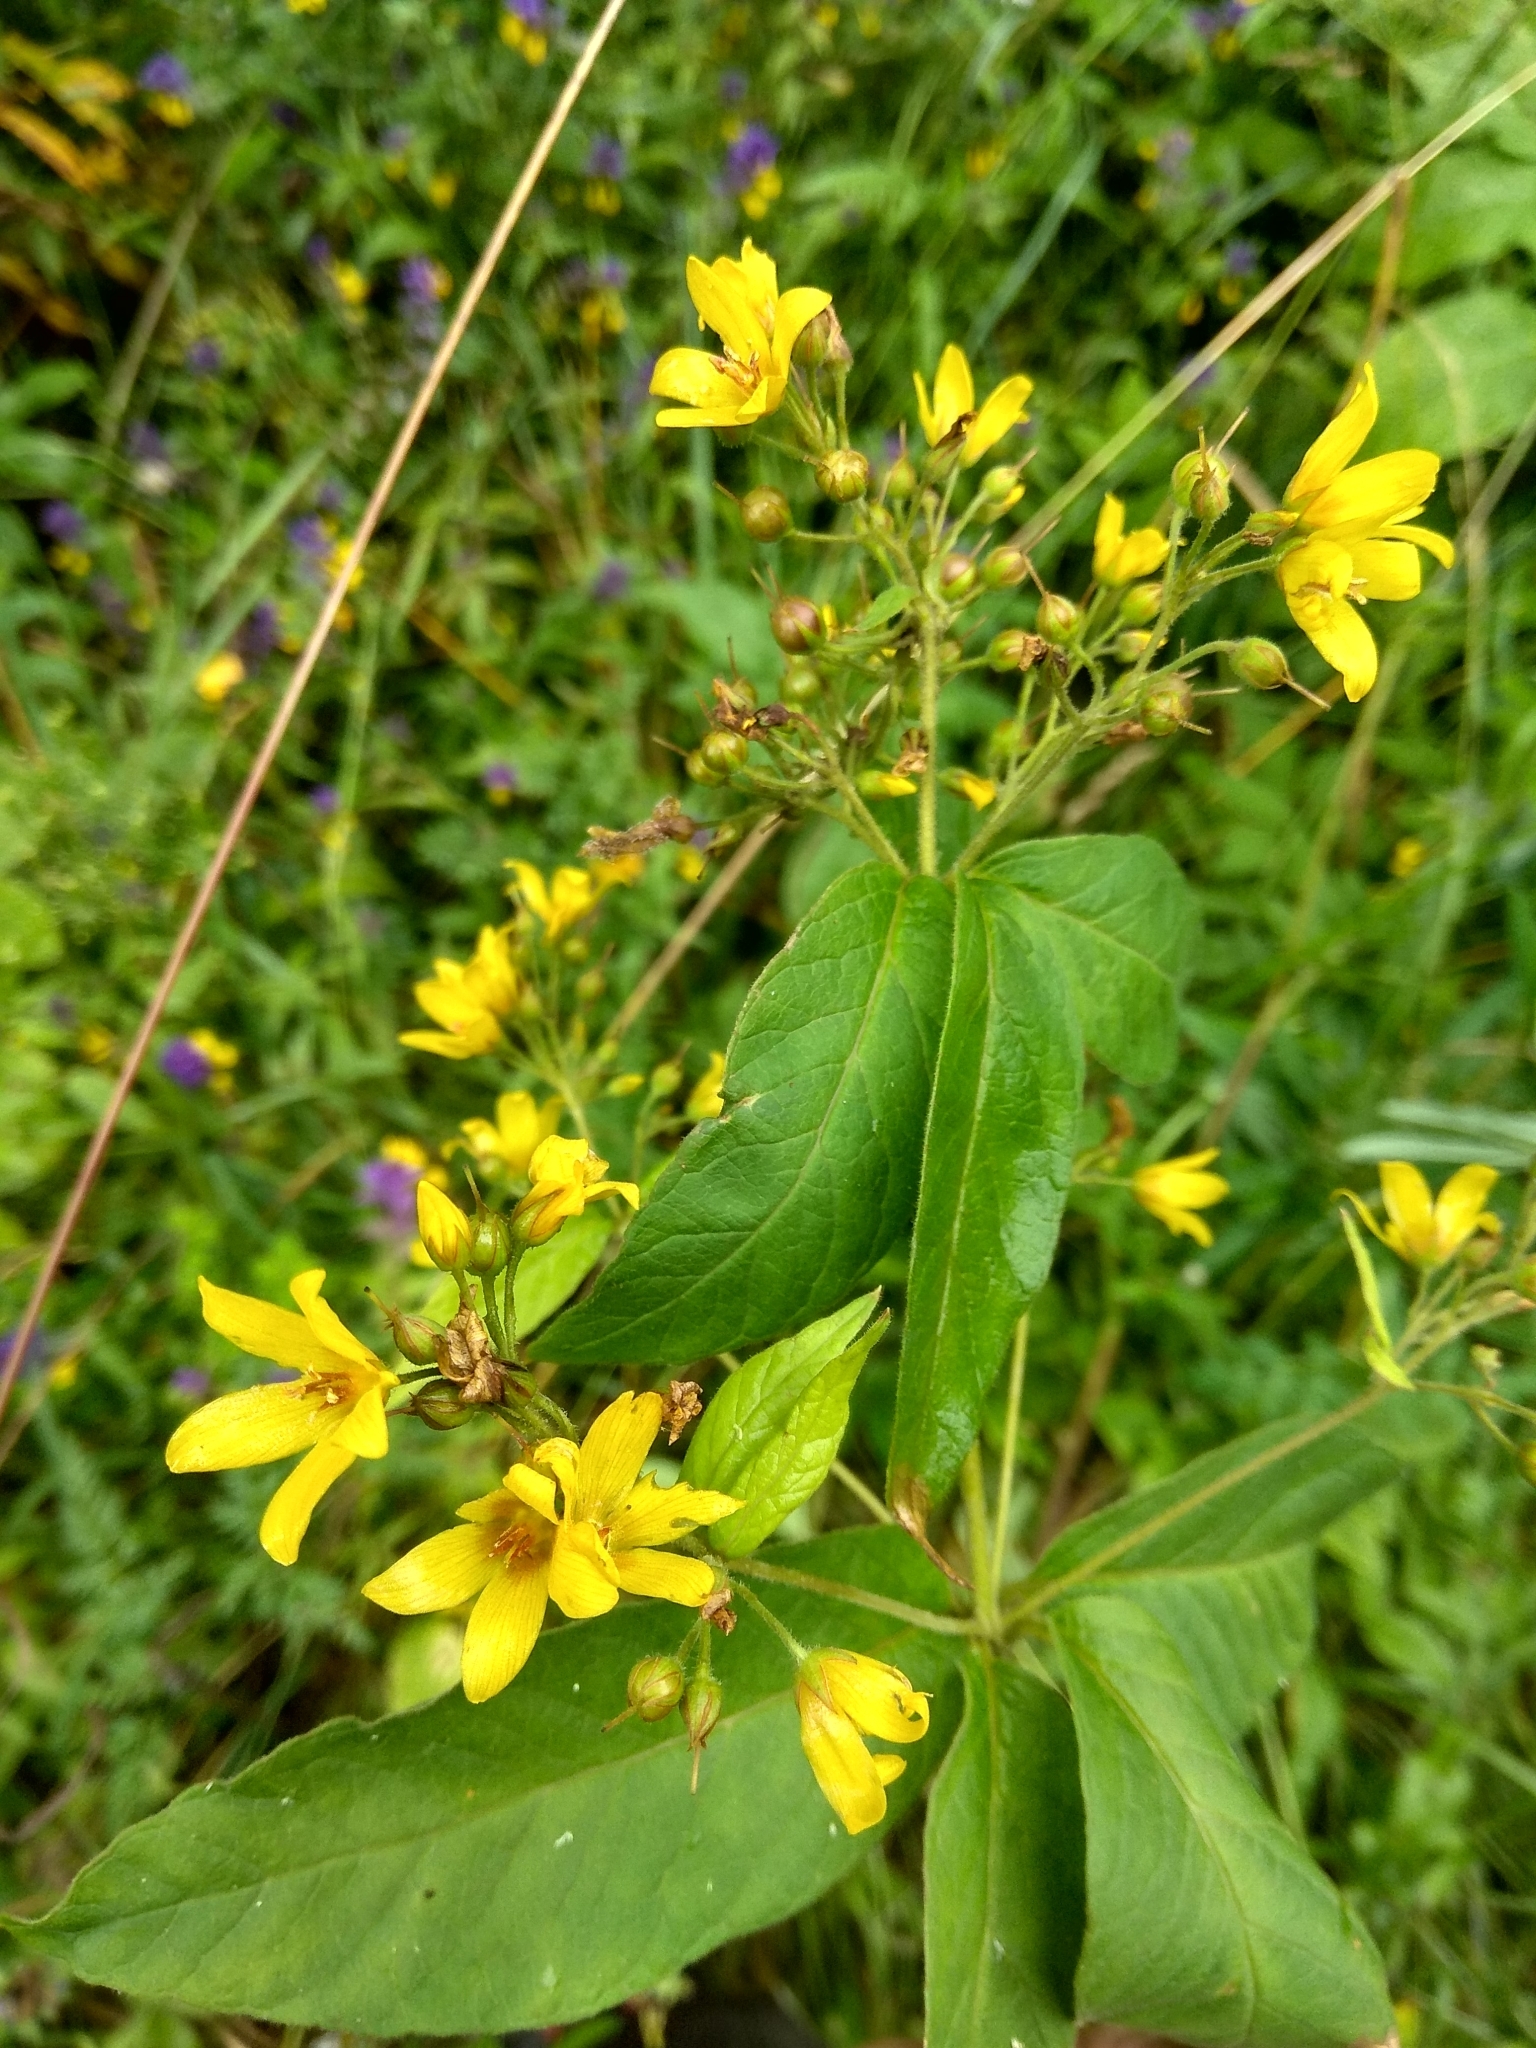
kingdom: Plantae
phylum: Tracheophyta
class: Magnoliopsida
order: Ericales
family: Primulaceae
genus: Lysimachia
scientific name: Lysimachia vulgaris
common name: Yellow loosestrife
